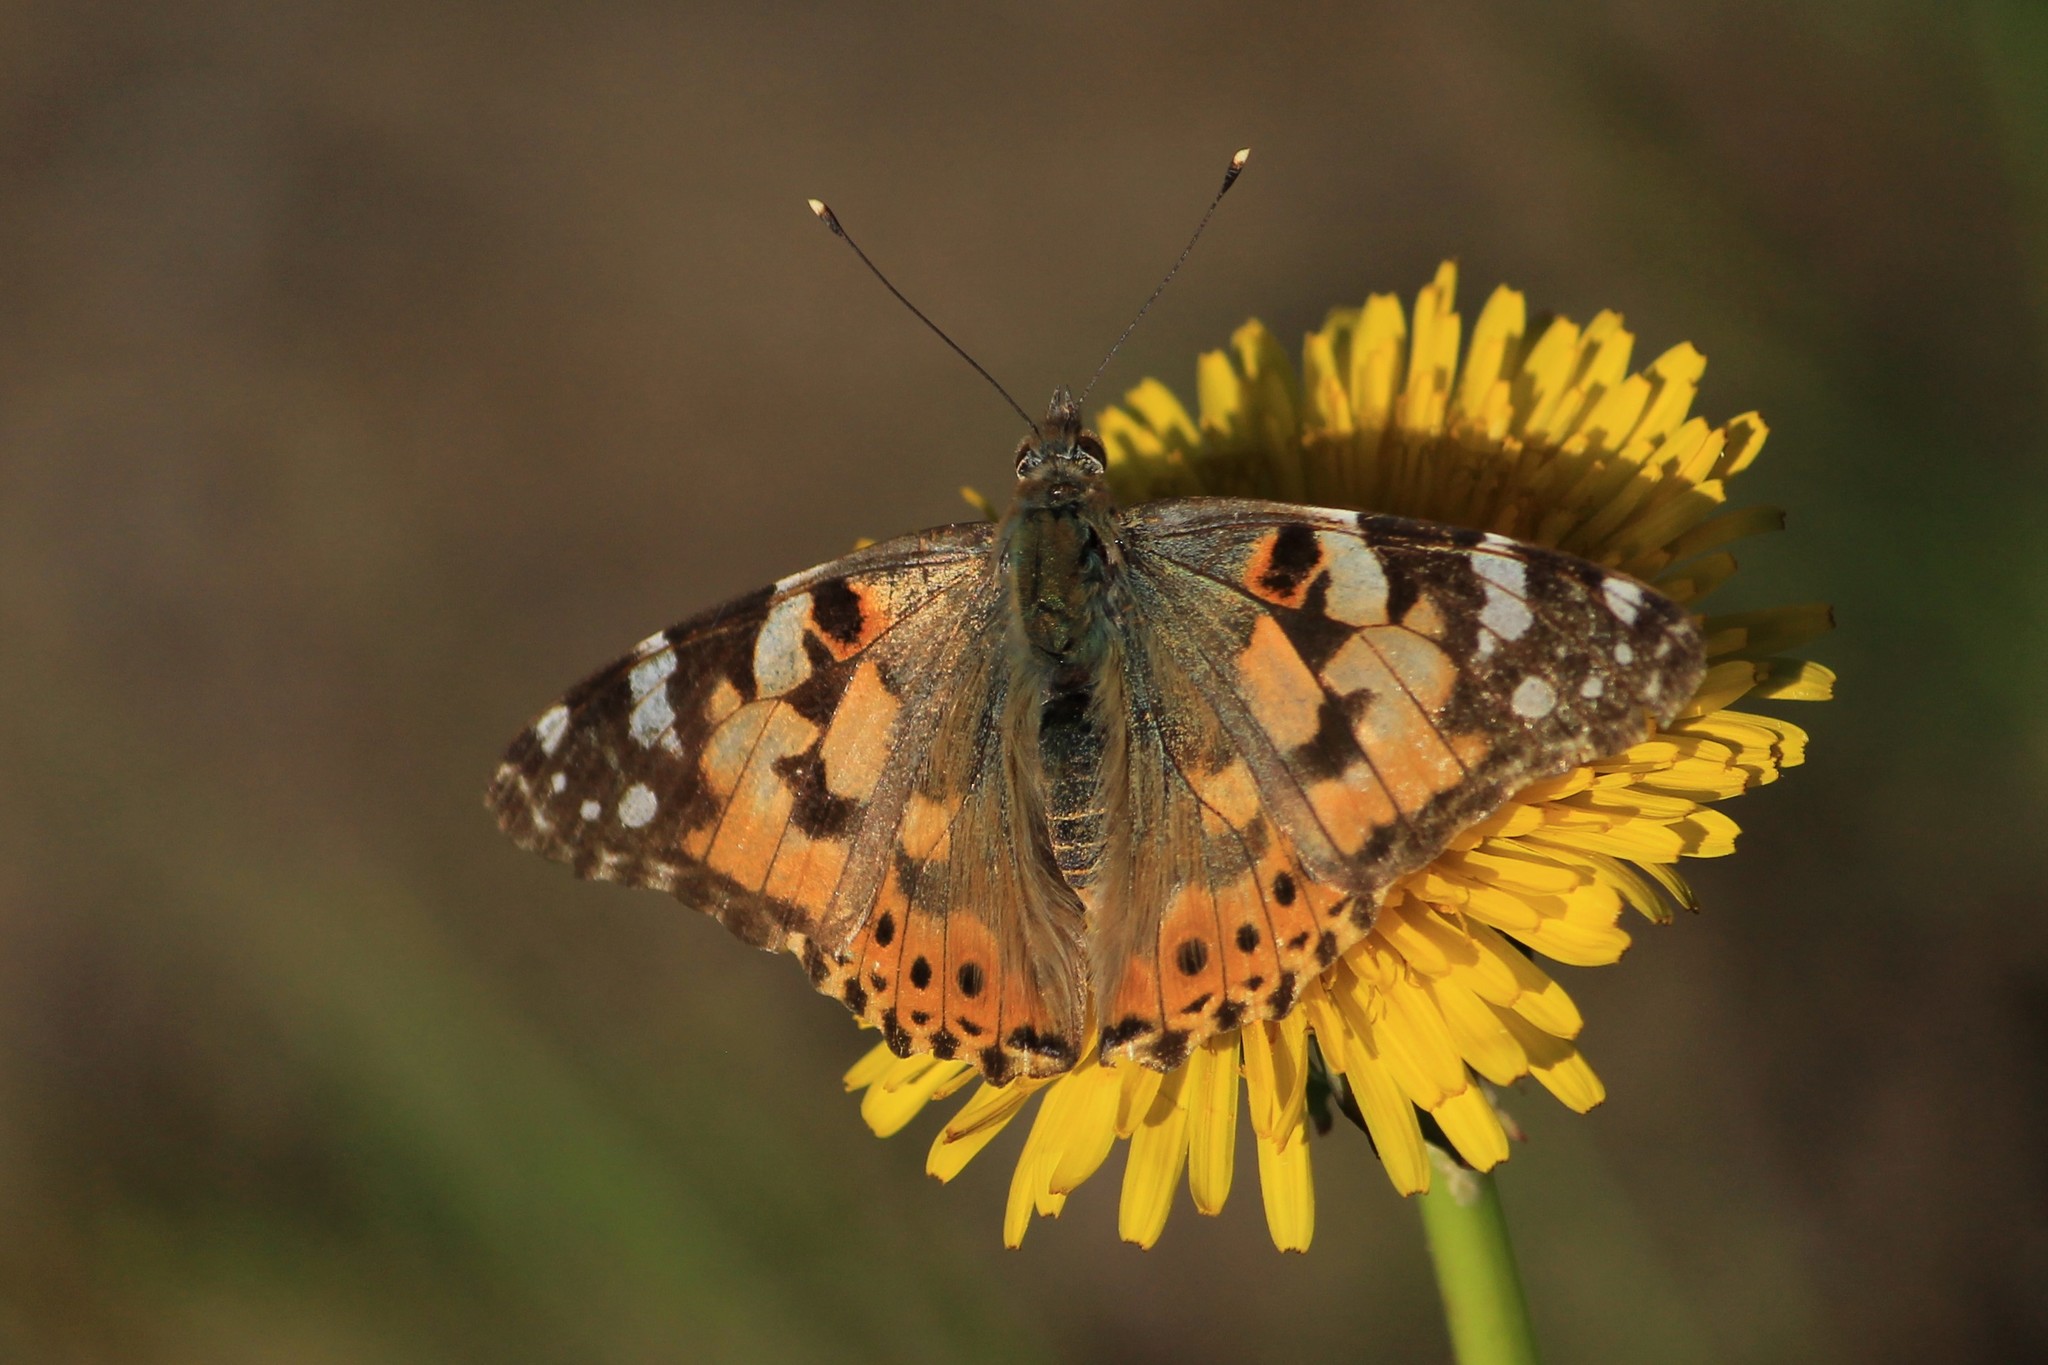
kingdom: Animalia
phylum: Arthropoda
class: Insecta
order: Lepidoptera
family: Nymphalidae
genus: Vanessa
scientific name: Vanessa cardui
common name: Painted lady
